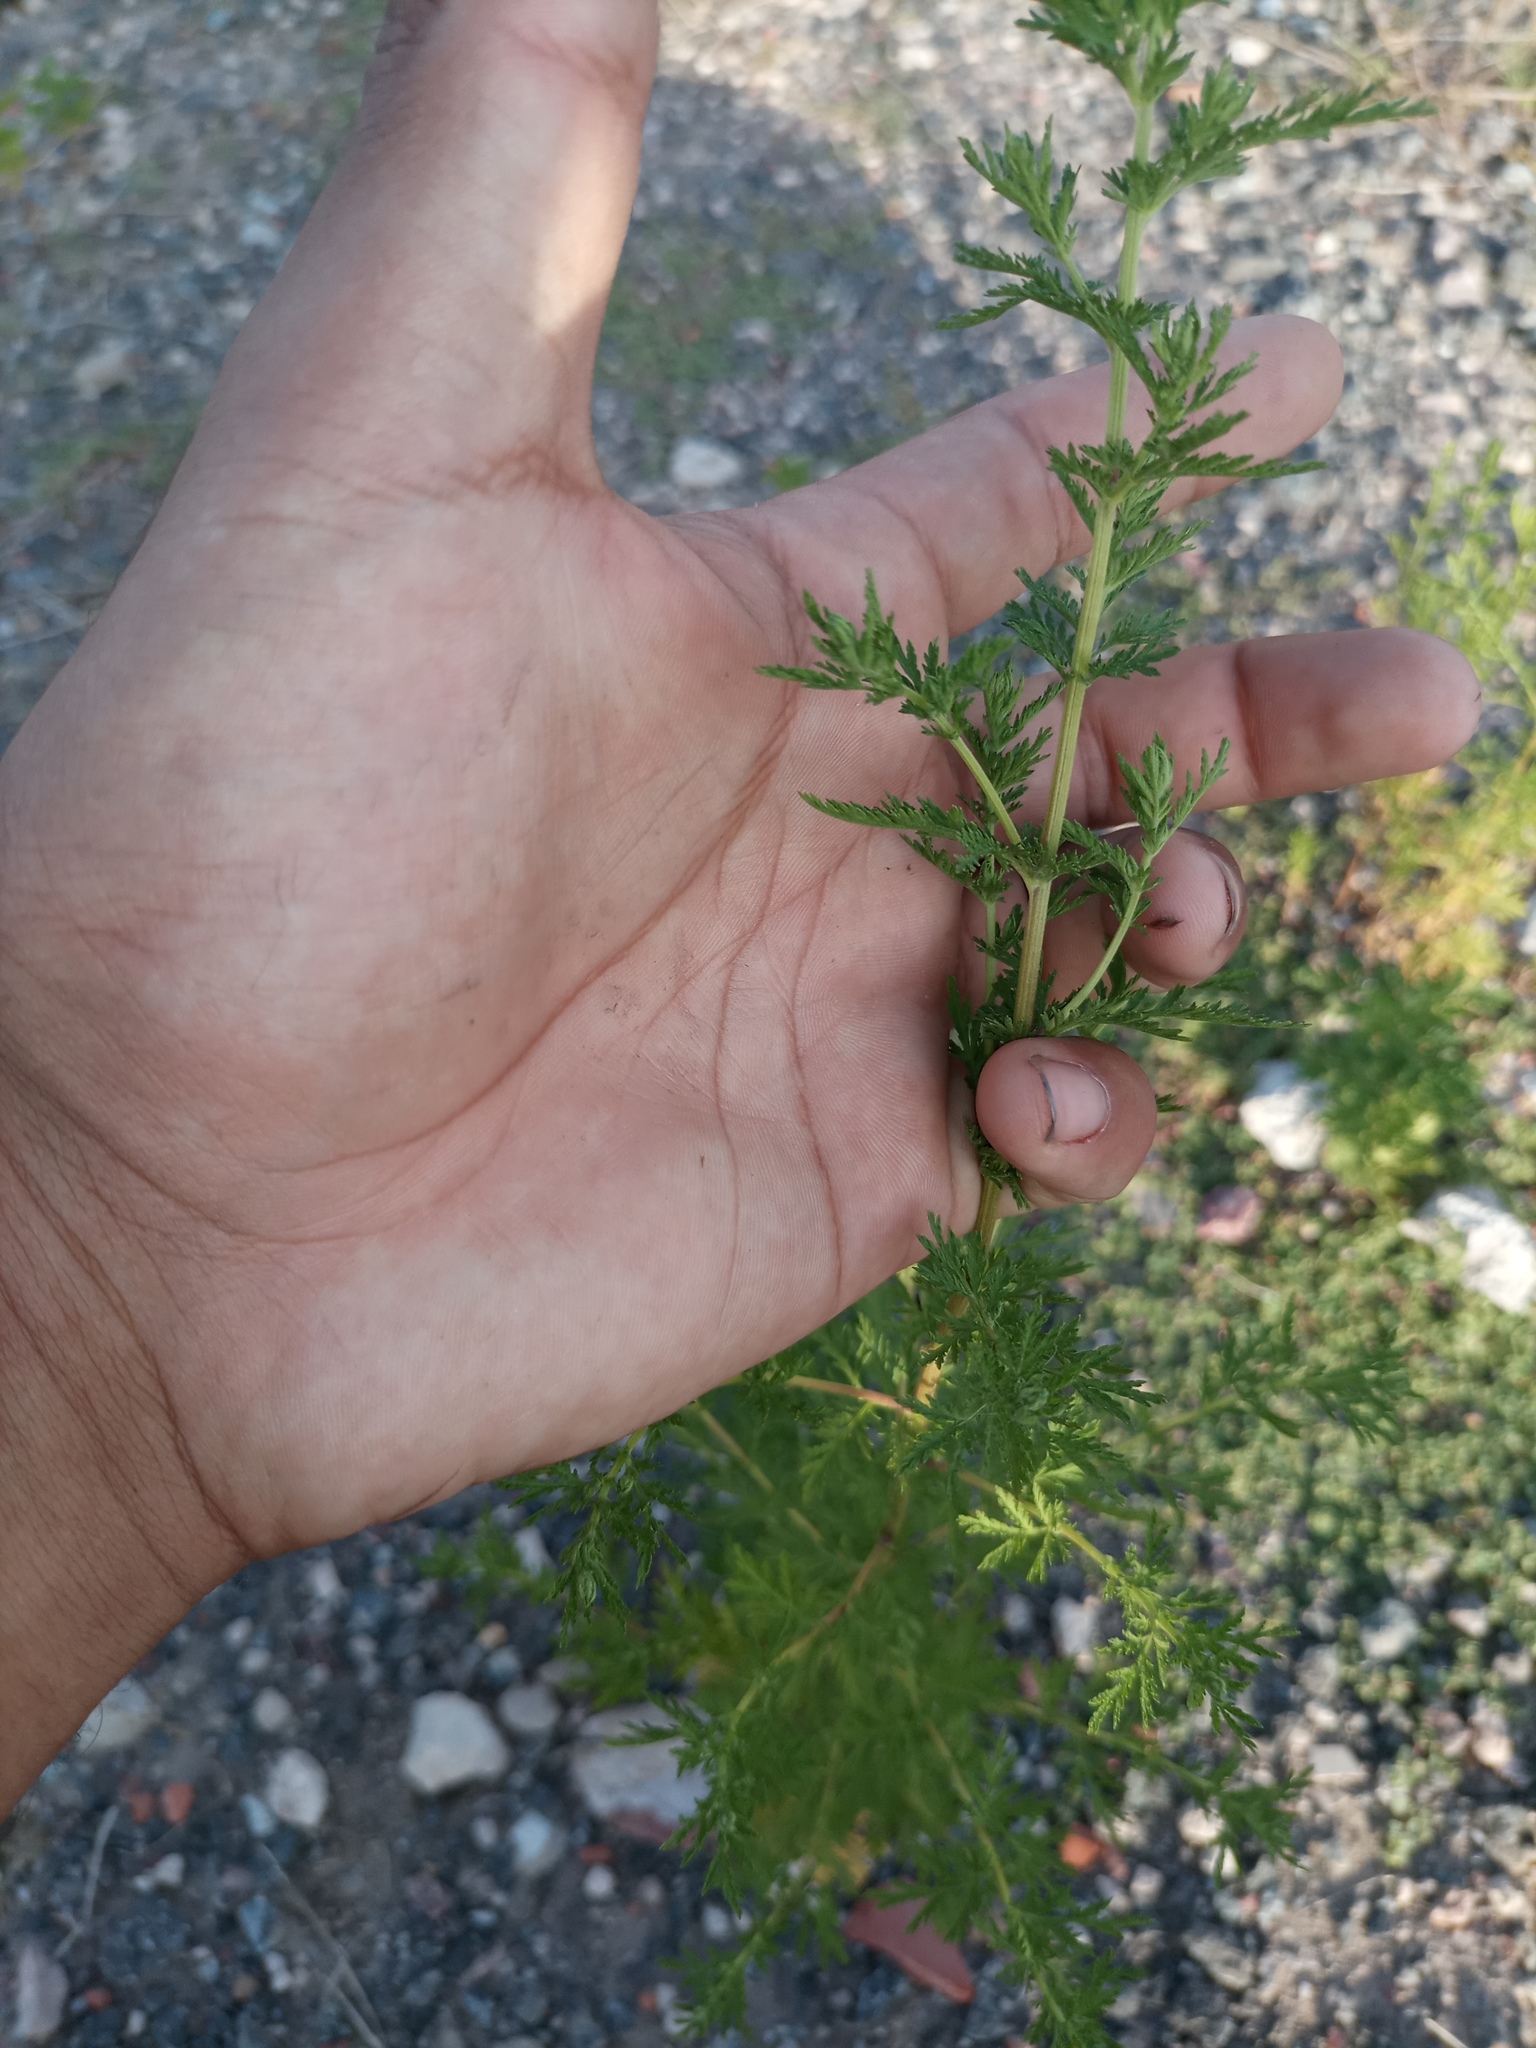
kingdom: Plantae
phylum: Tracheophyta
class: Magnoliopsida
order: Asterales
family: Asteraceae
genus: Artemisia
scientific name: Artemisia annua
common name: Sweet sagewort
